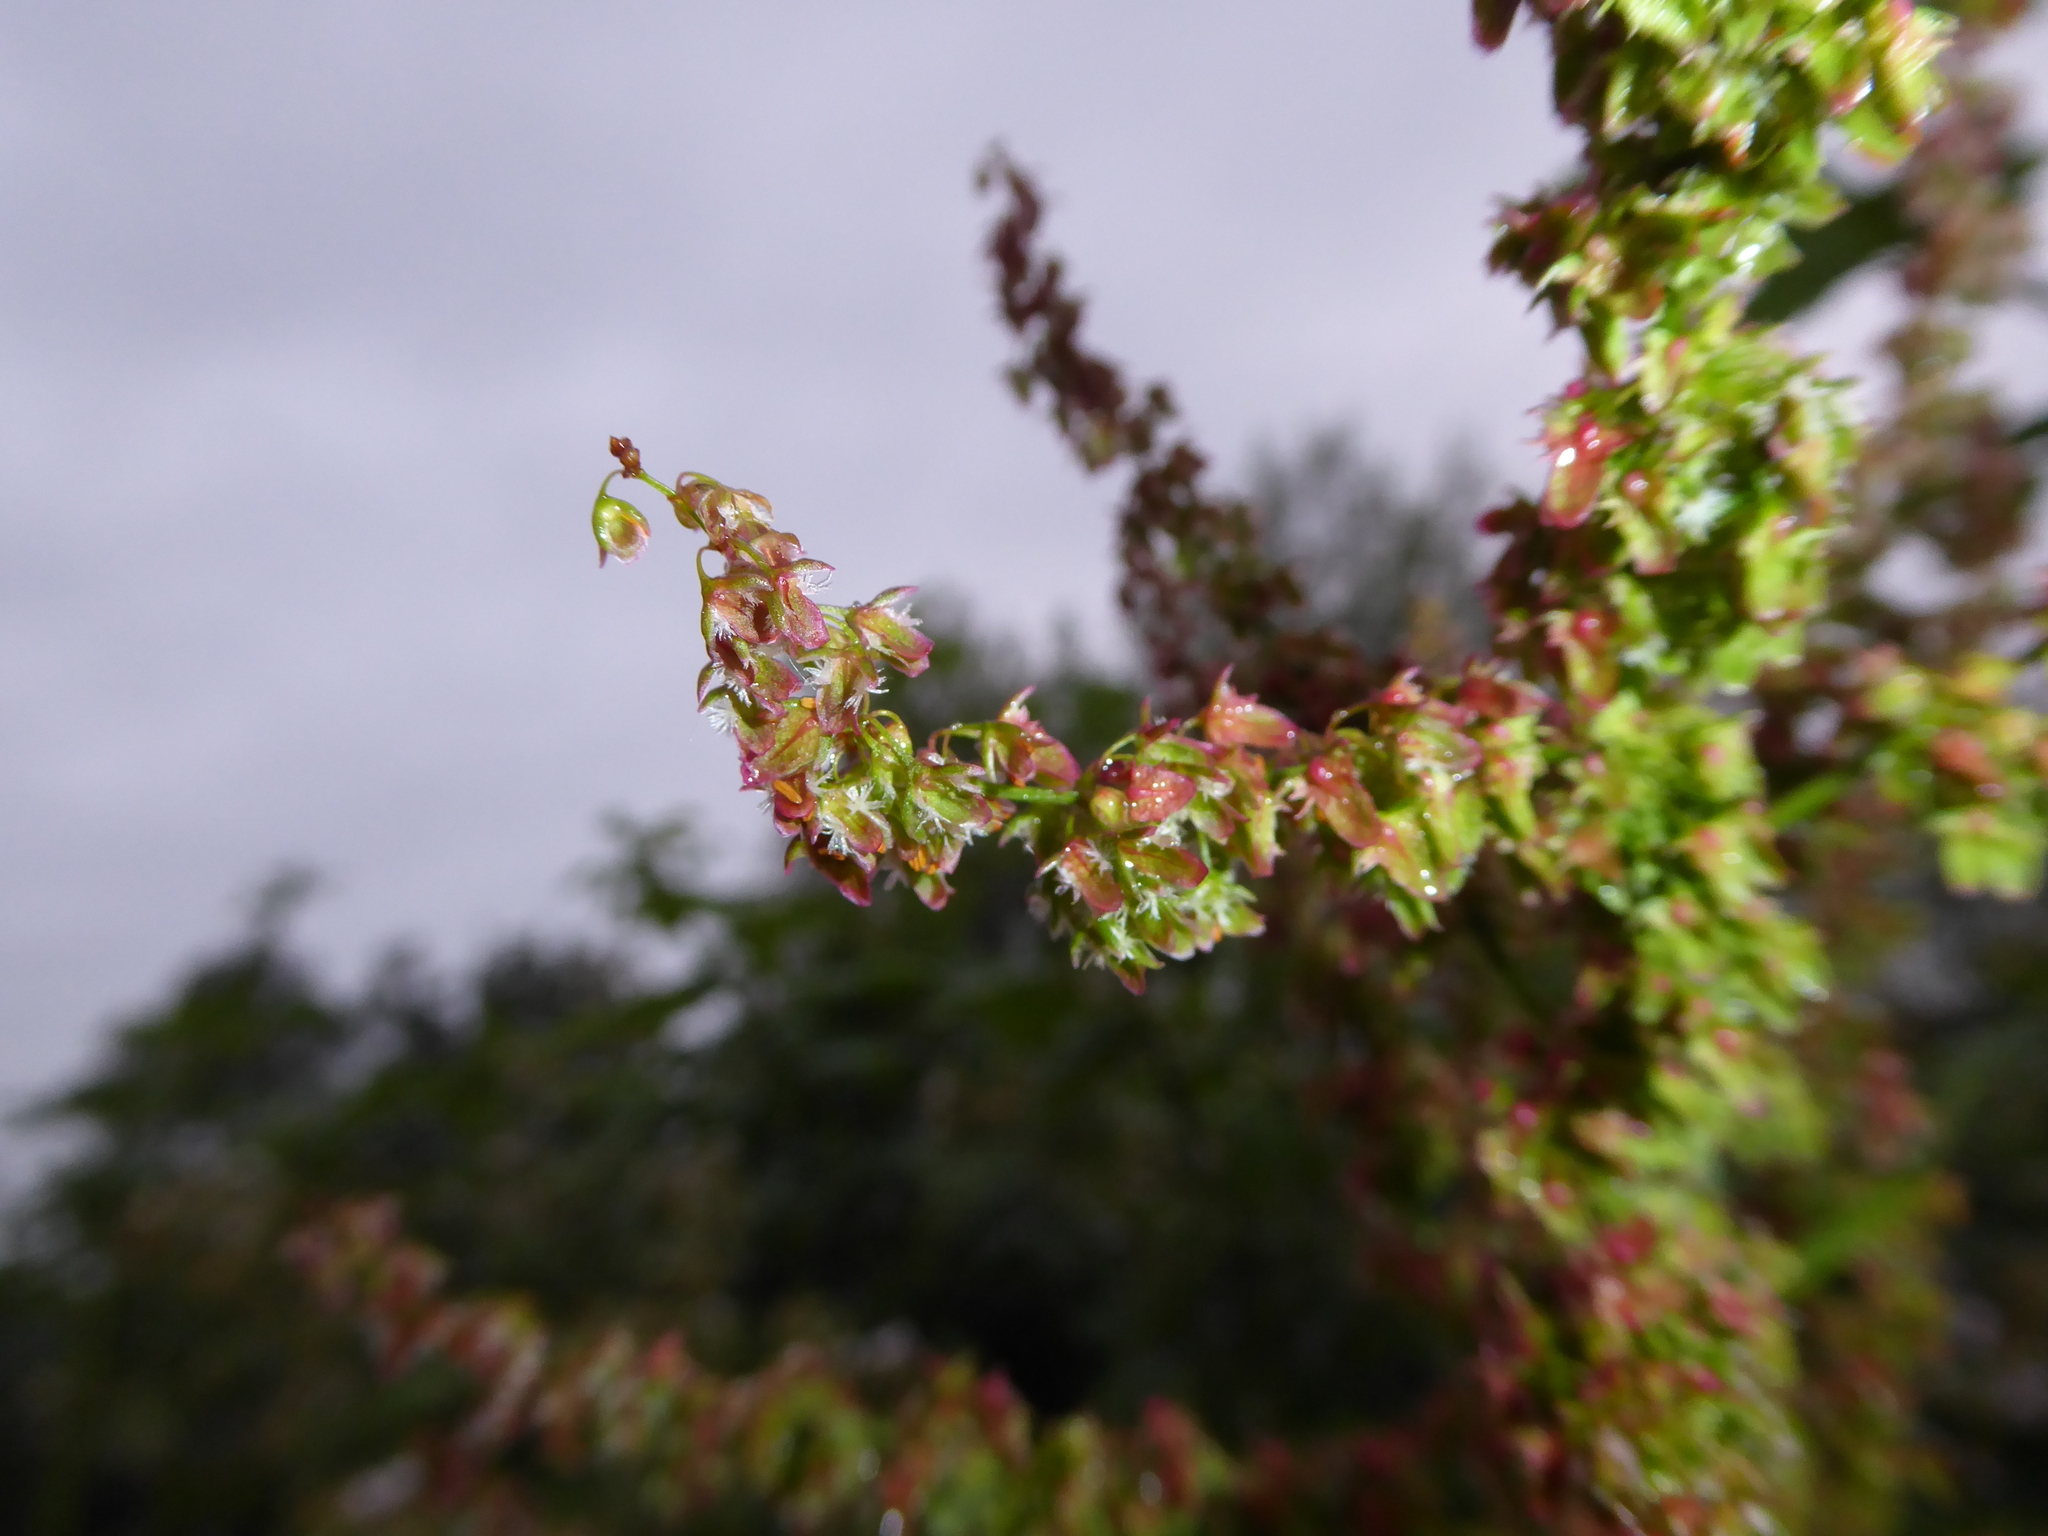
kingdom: Plantae
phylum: Tracheophyta
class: Magnoliopsida
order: Caryophyllales
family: Polygonaceae
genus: Rumex
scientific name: Rumex obtusifolius
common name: Bitter dock
